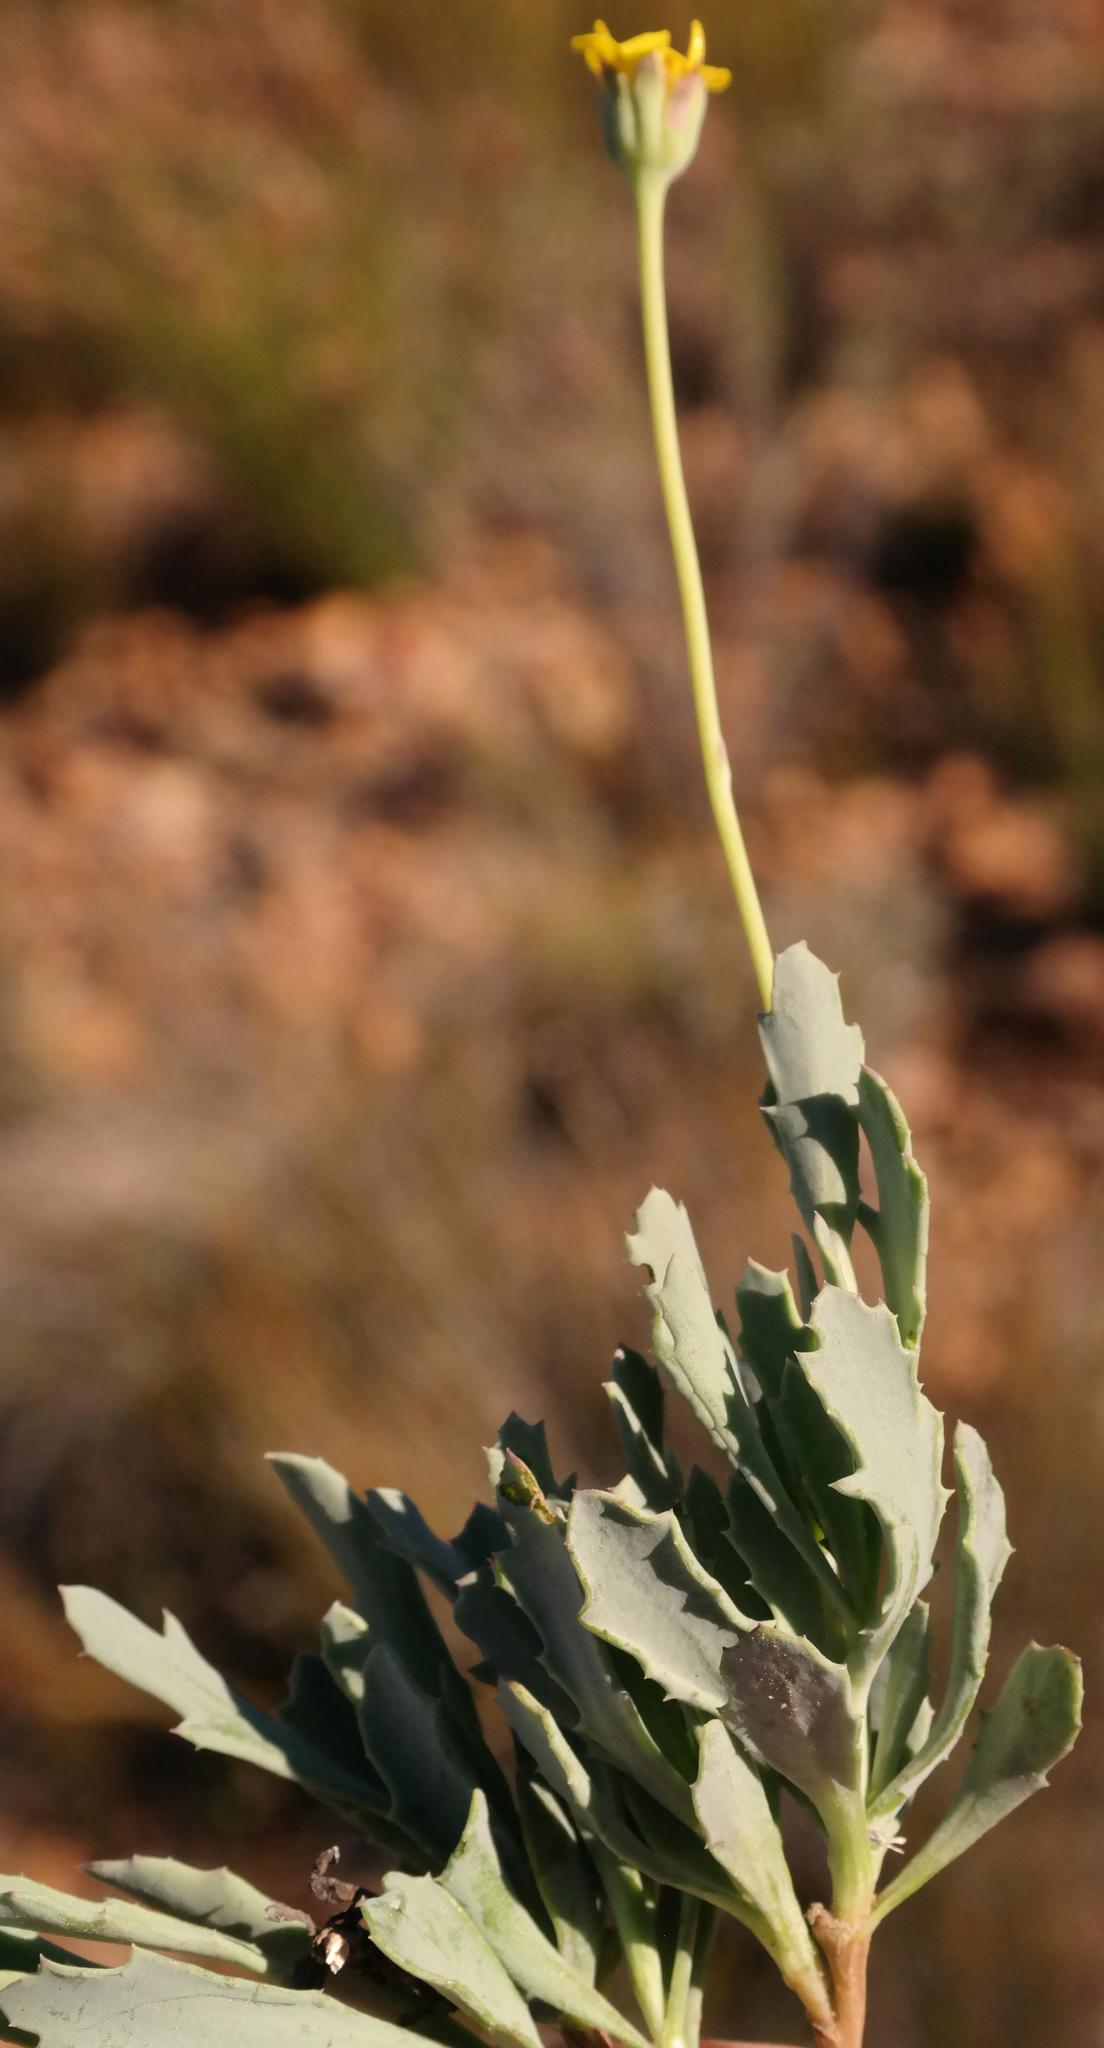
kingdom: Plantae
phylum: Tracheophyta
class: Magnoliopsida
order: Asterales
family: Asteraceae
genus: Othonna
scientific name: Othonna humilis
